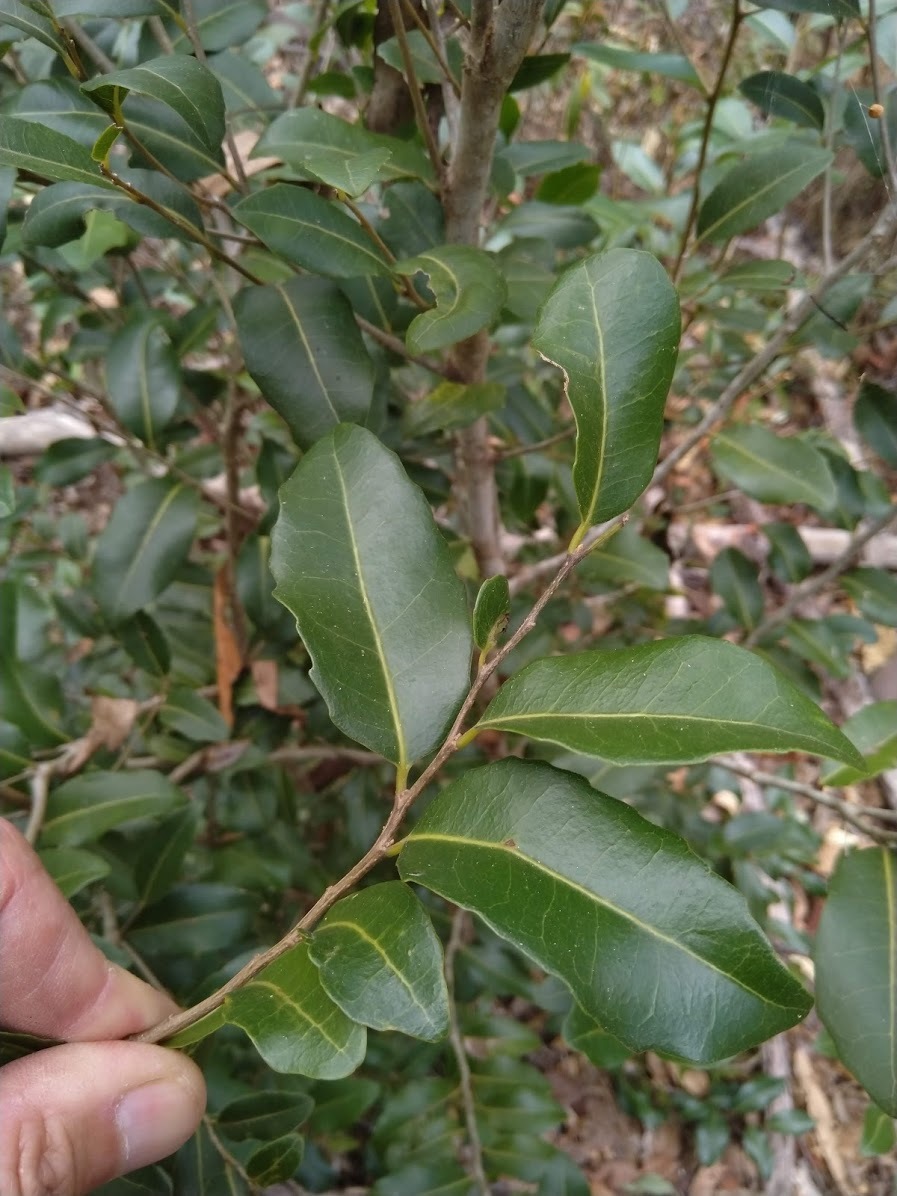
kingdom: Plantae
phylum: Tracheophyta
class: Magnoliopsida
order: Malpighiales
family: Putranjivaceae
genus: Drypetes
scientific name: Drypetes deplanchei
